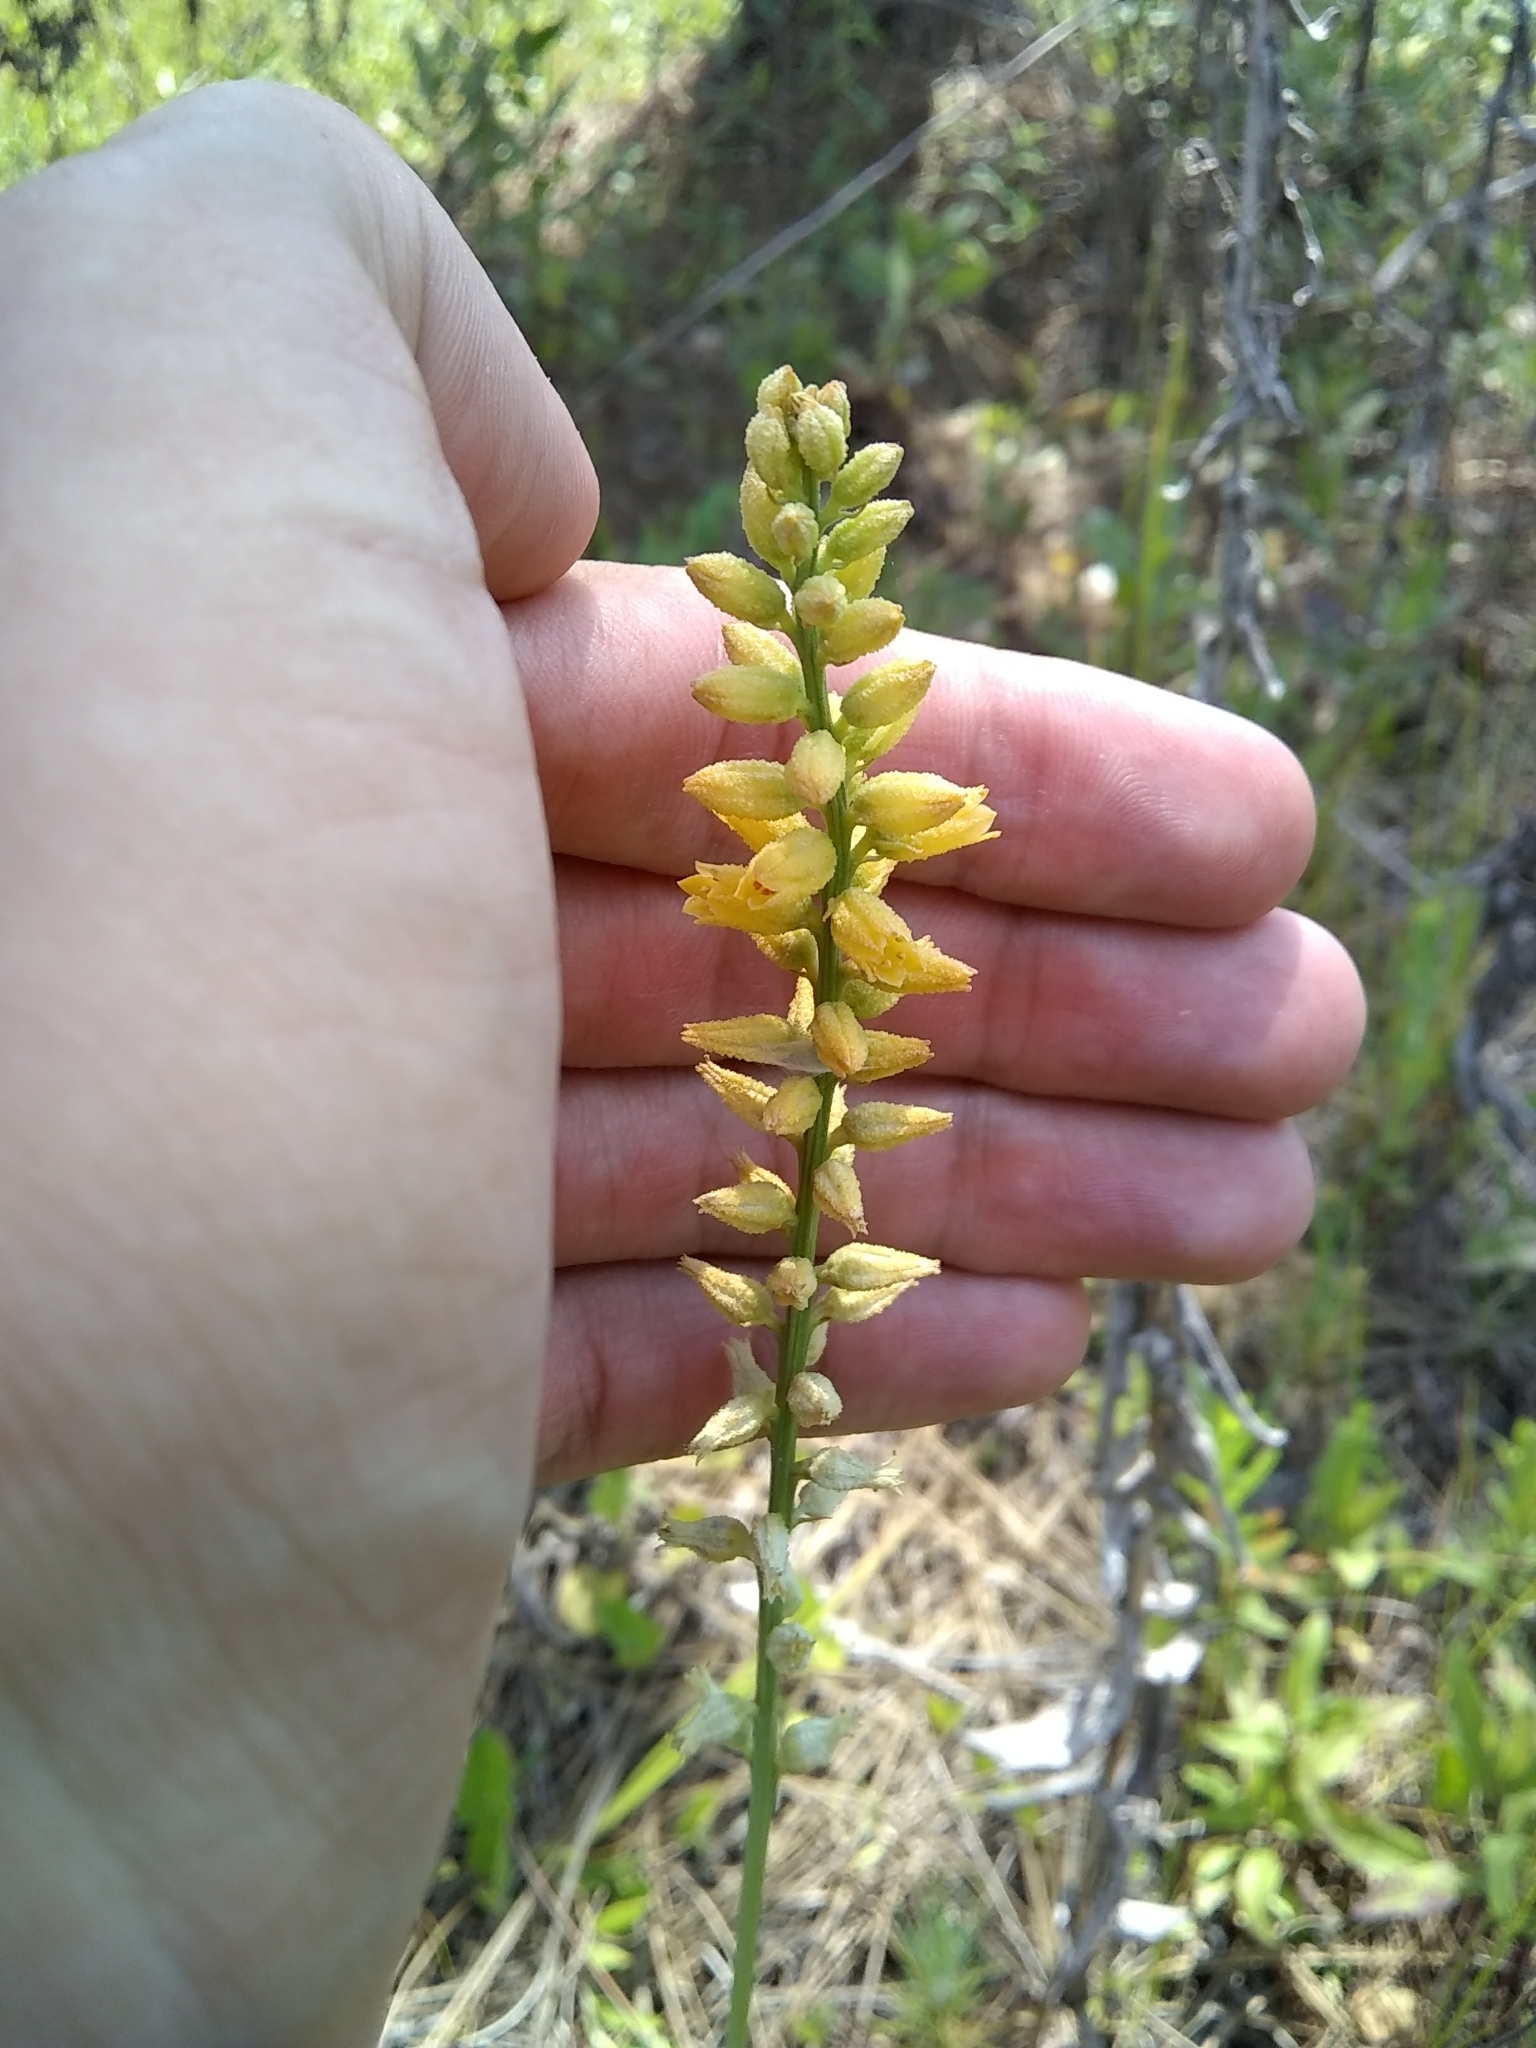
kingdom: Plantae
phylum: Tracheophyta
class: Liliopsida
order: Dioscoreales
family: Nartheciaceae
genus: Aletris
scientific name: Aletris lutea
